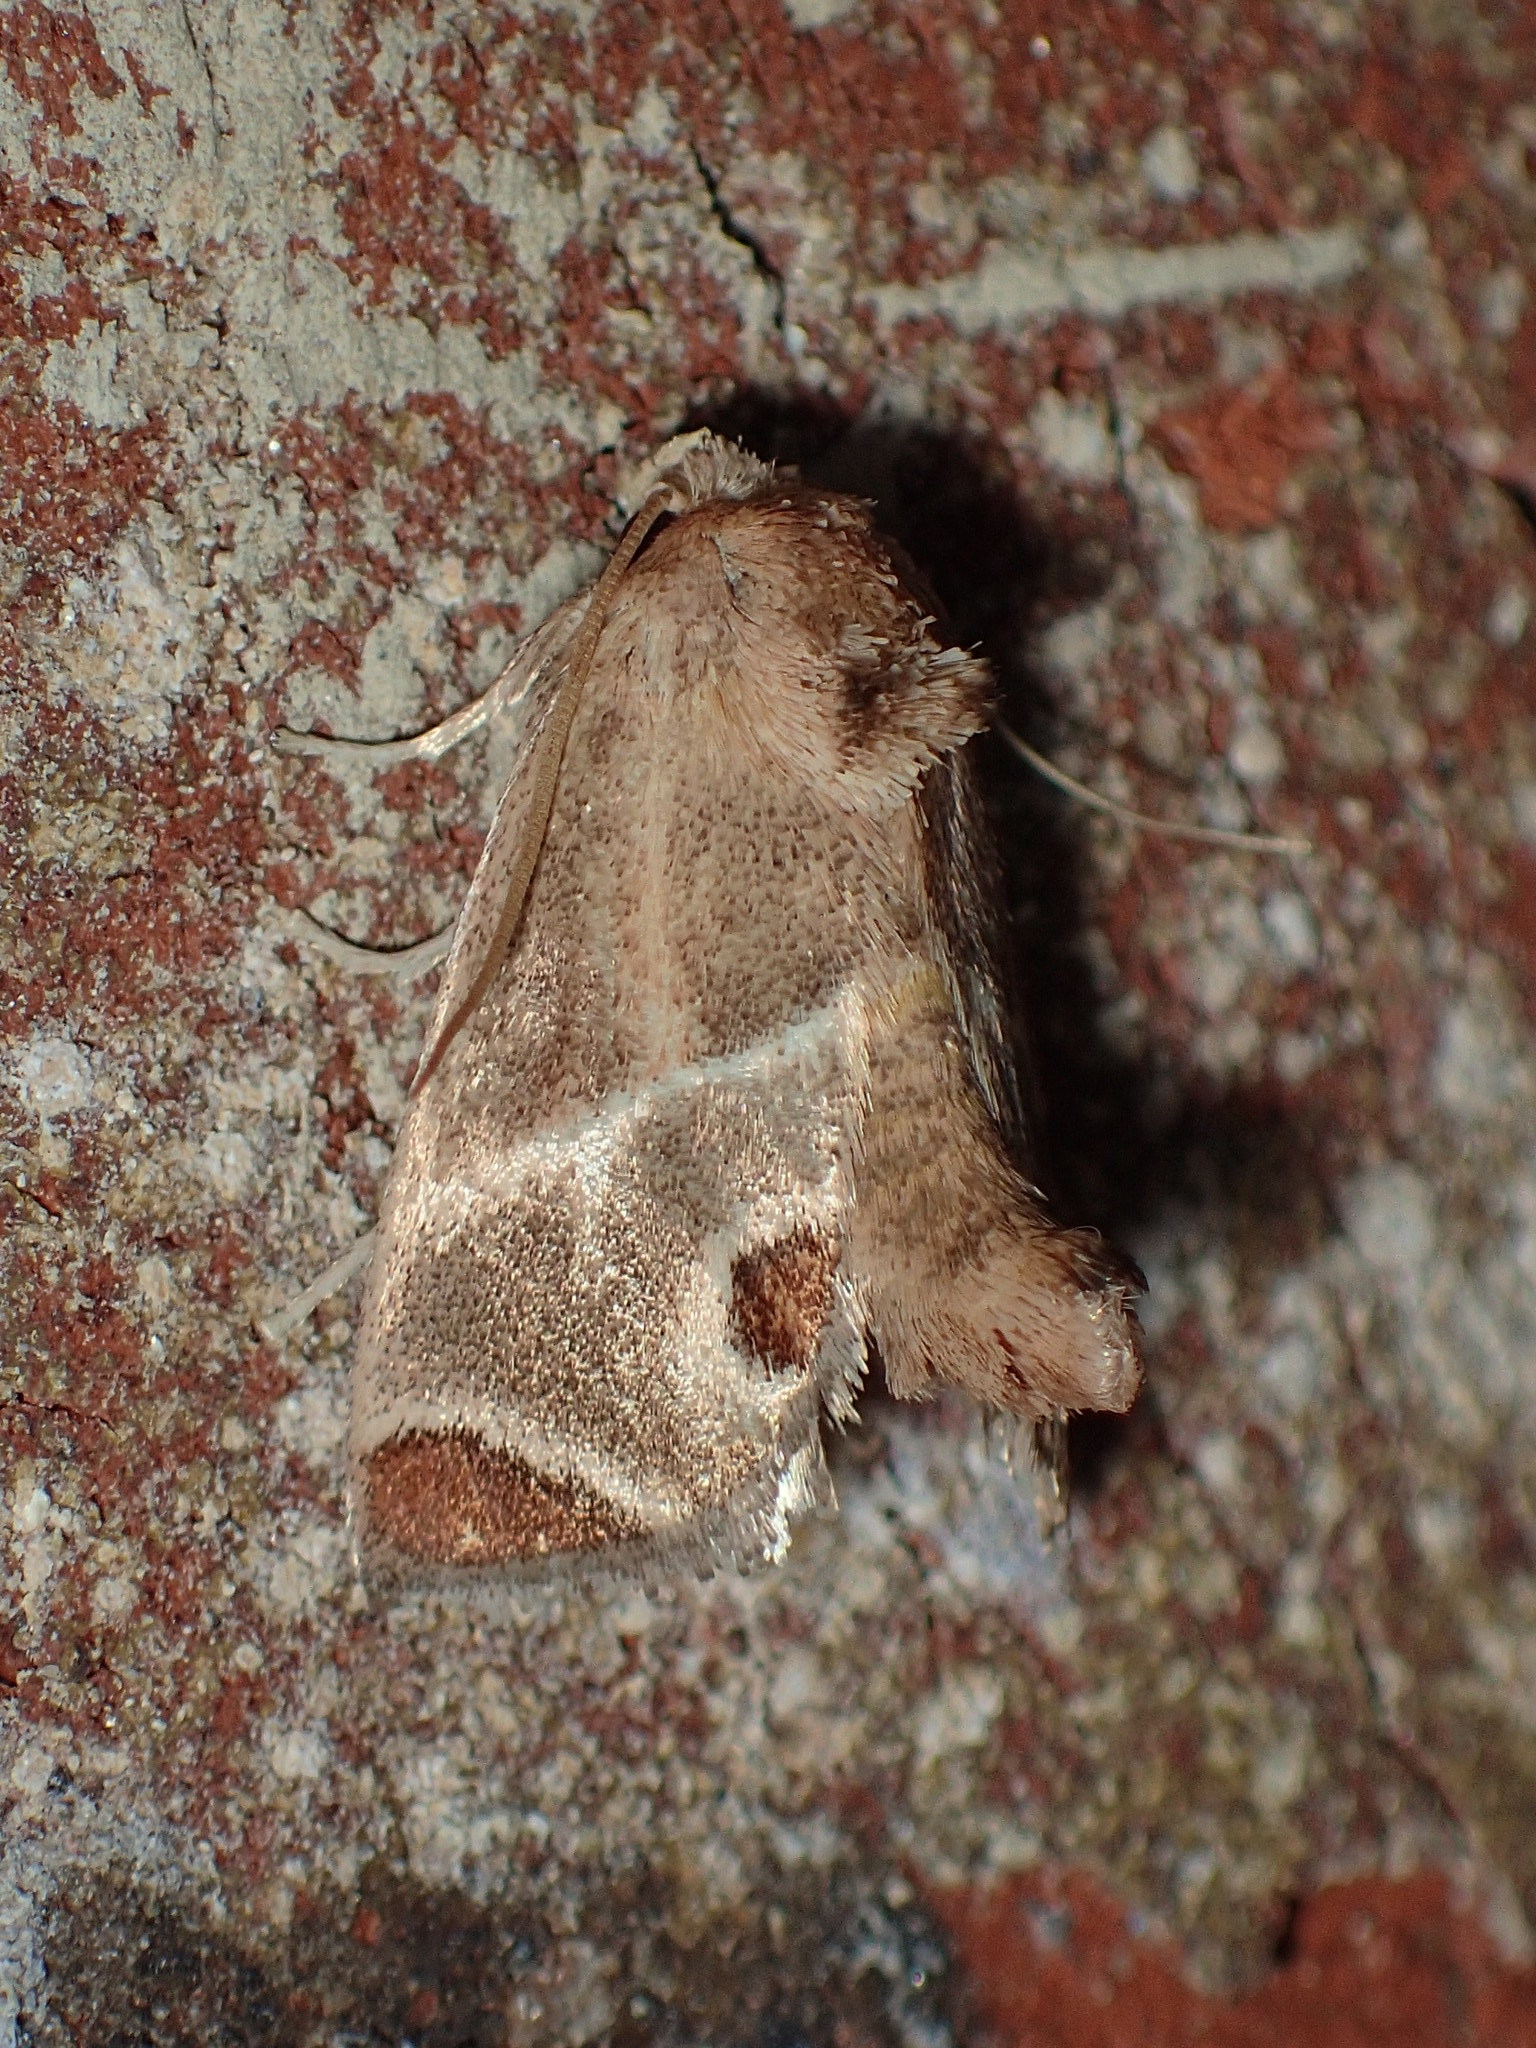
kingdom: Animalia
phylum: Arthropoda
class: Insecta
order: Lepidoptera
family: Limacodidae
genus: Apoda
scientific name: Apoda biguttata
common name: Shagreened slug moth
